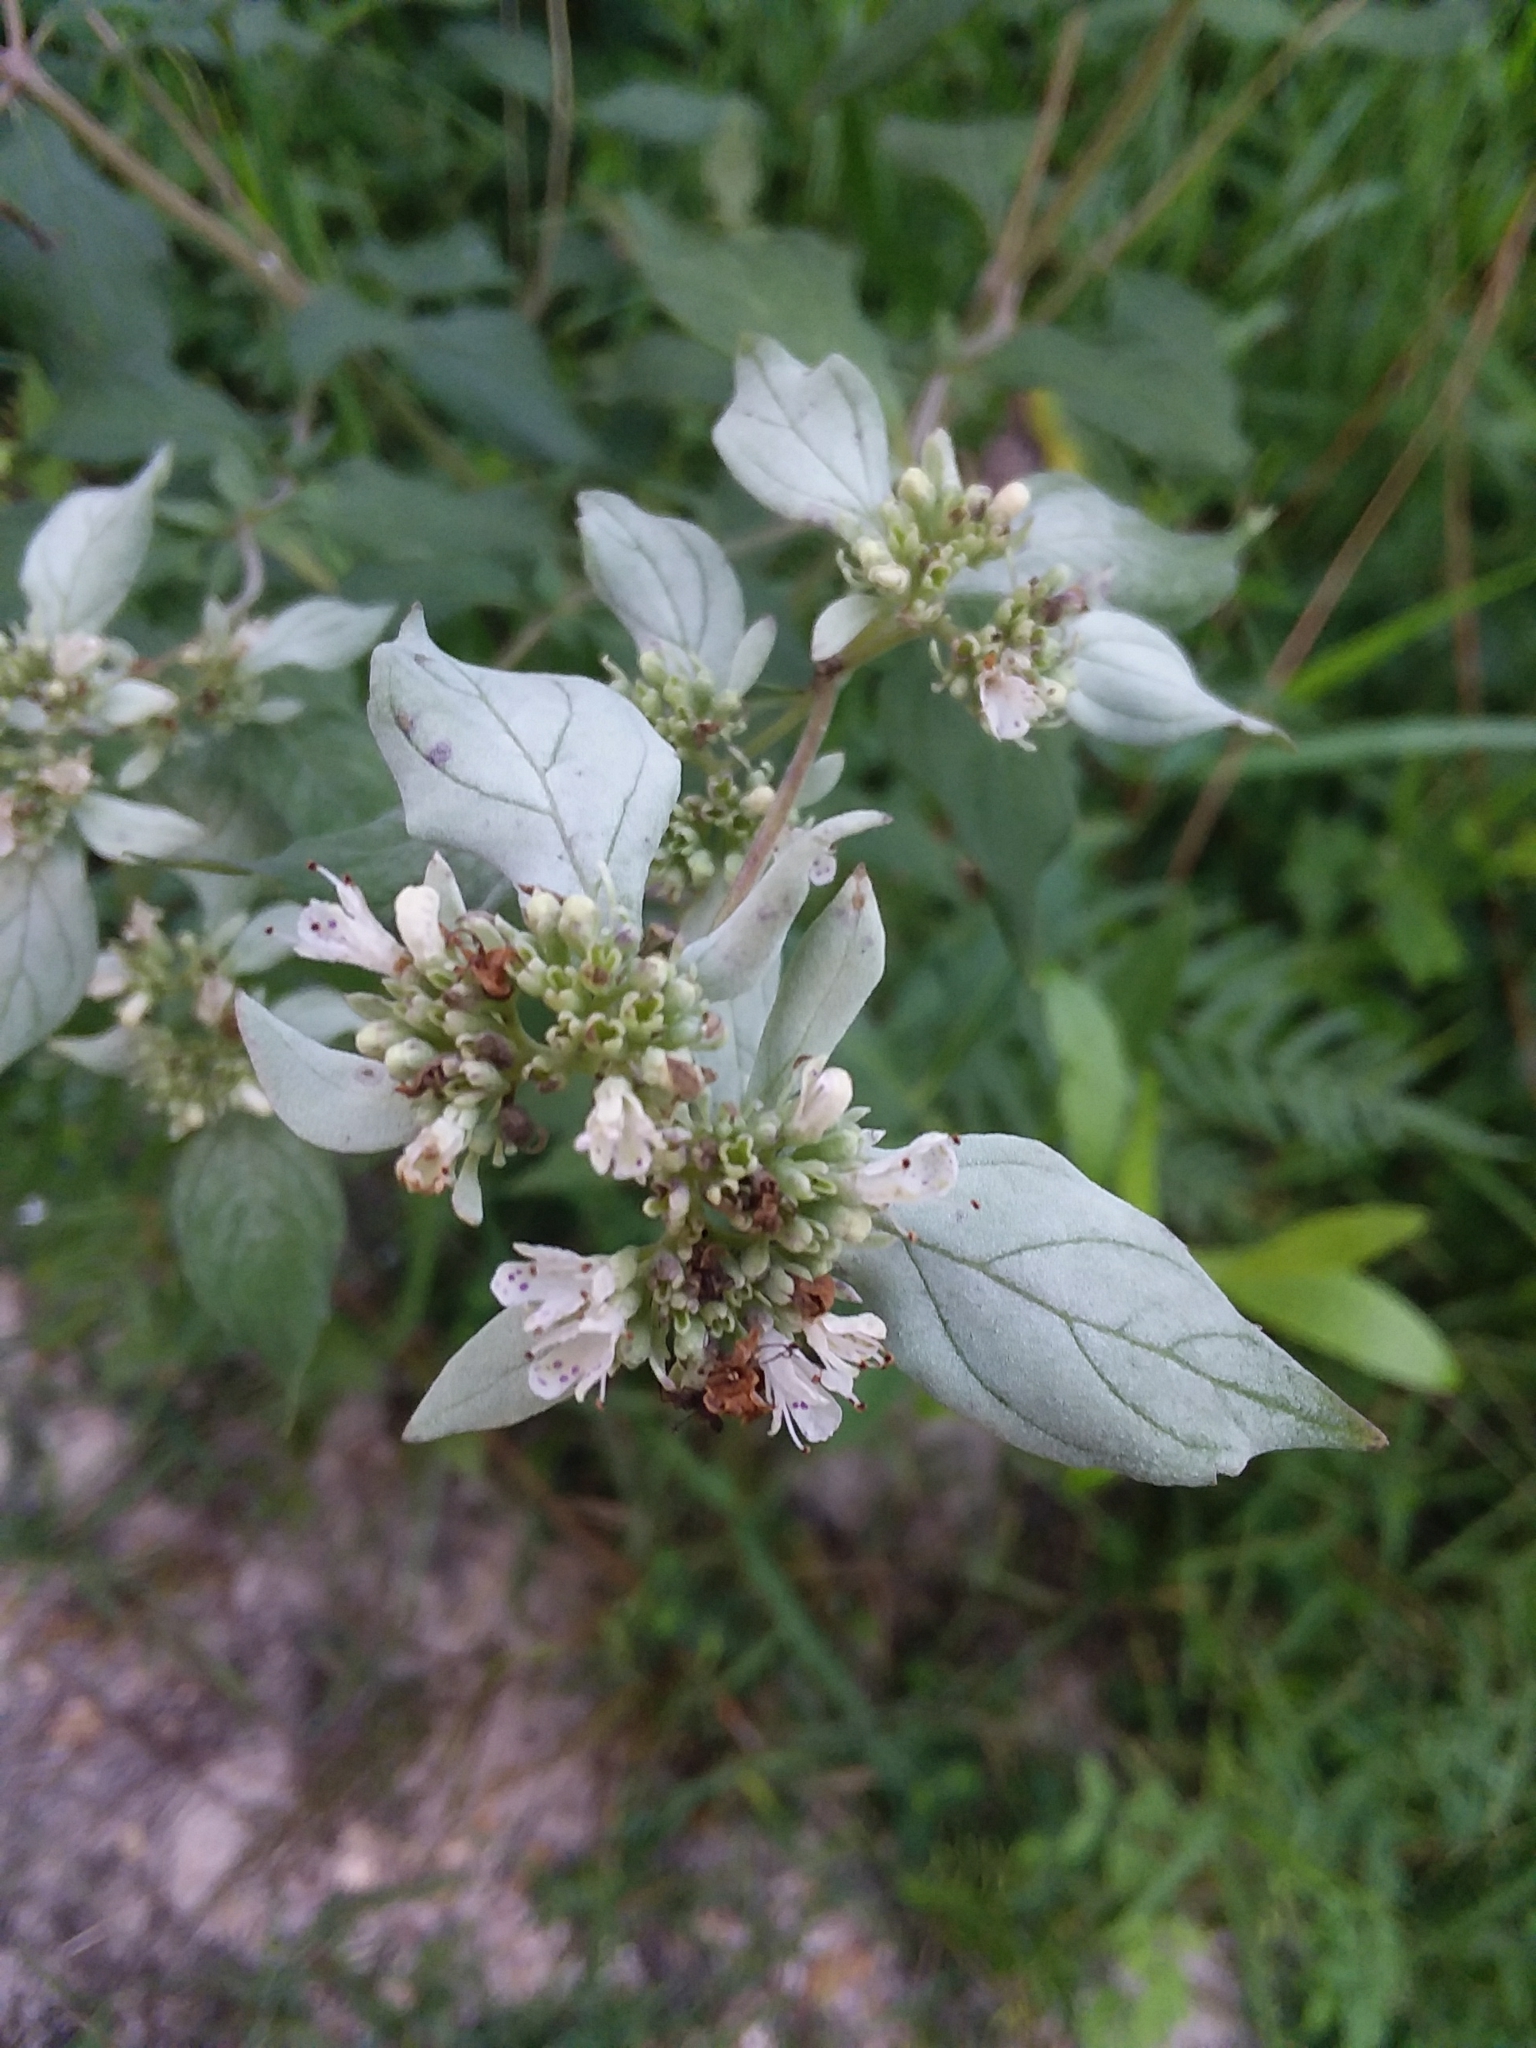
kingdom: Plantae
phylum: Tracheophyta
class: Magnoliopsida
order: Lamiales
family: Lamiaceae
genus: Pycnanthemum
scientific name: Pycnanthemum albescens
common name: White-leaf mountain-mint
